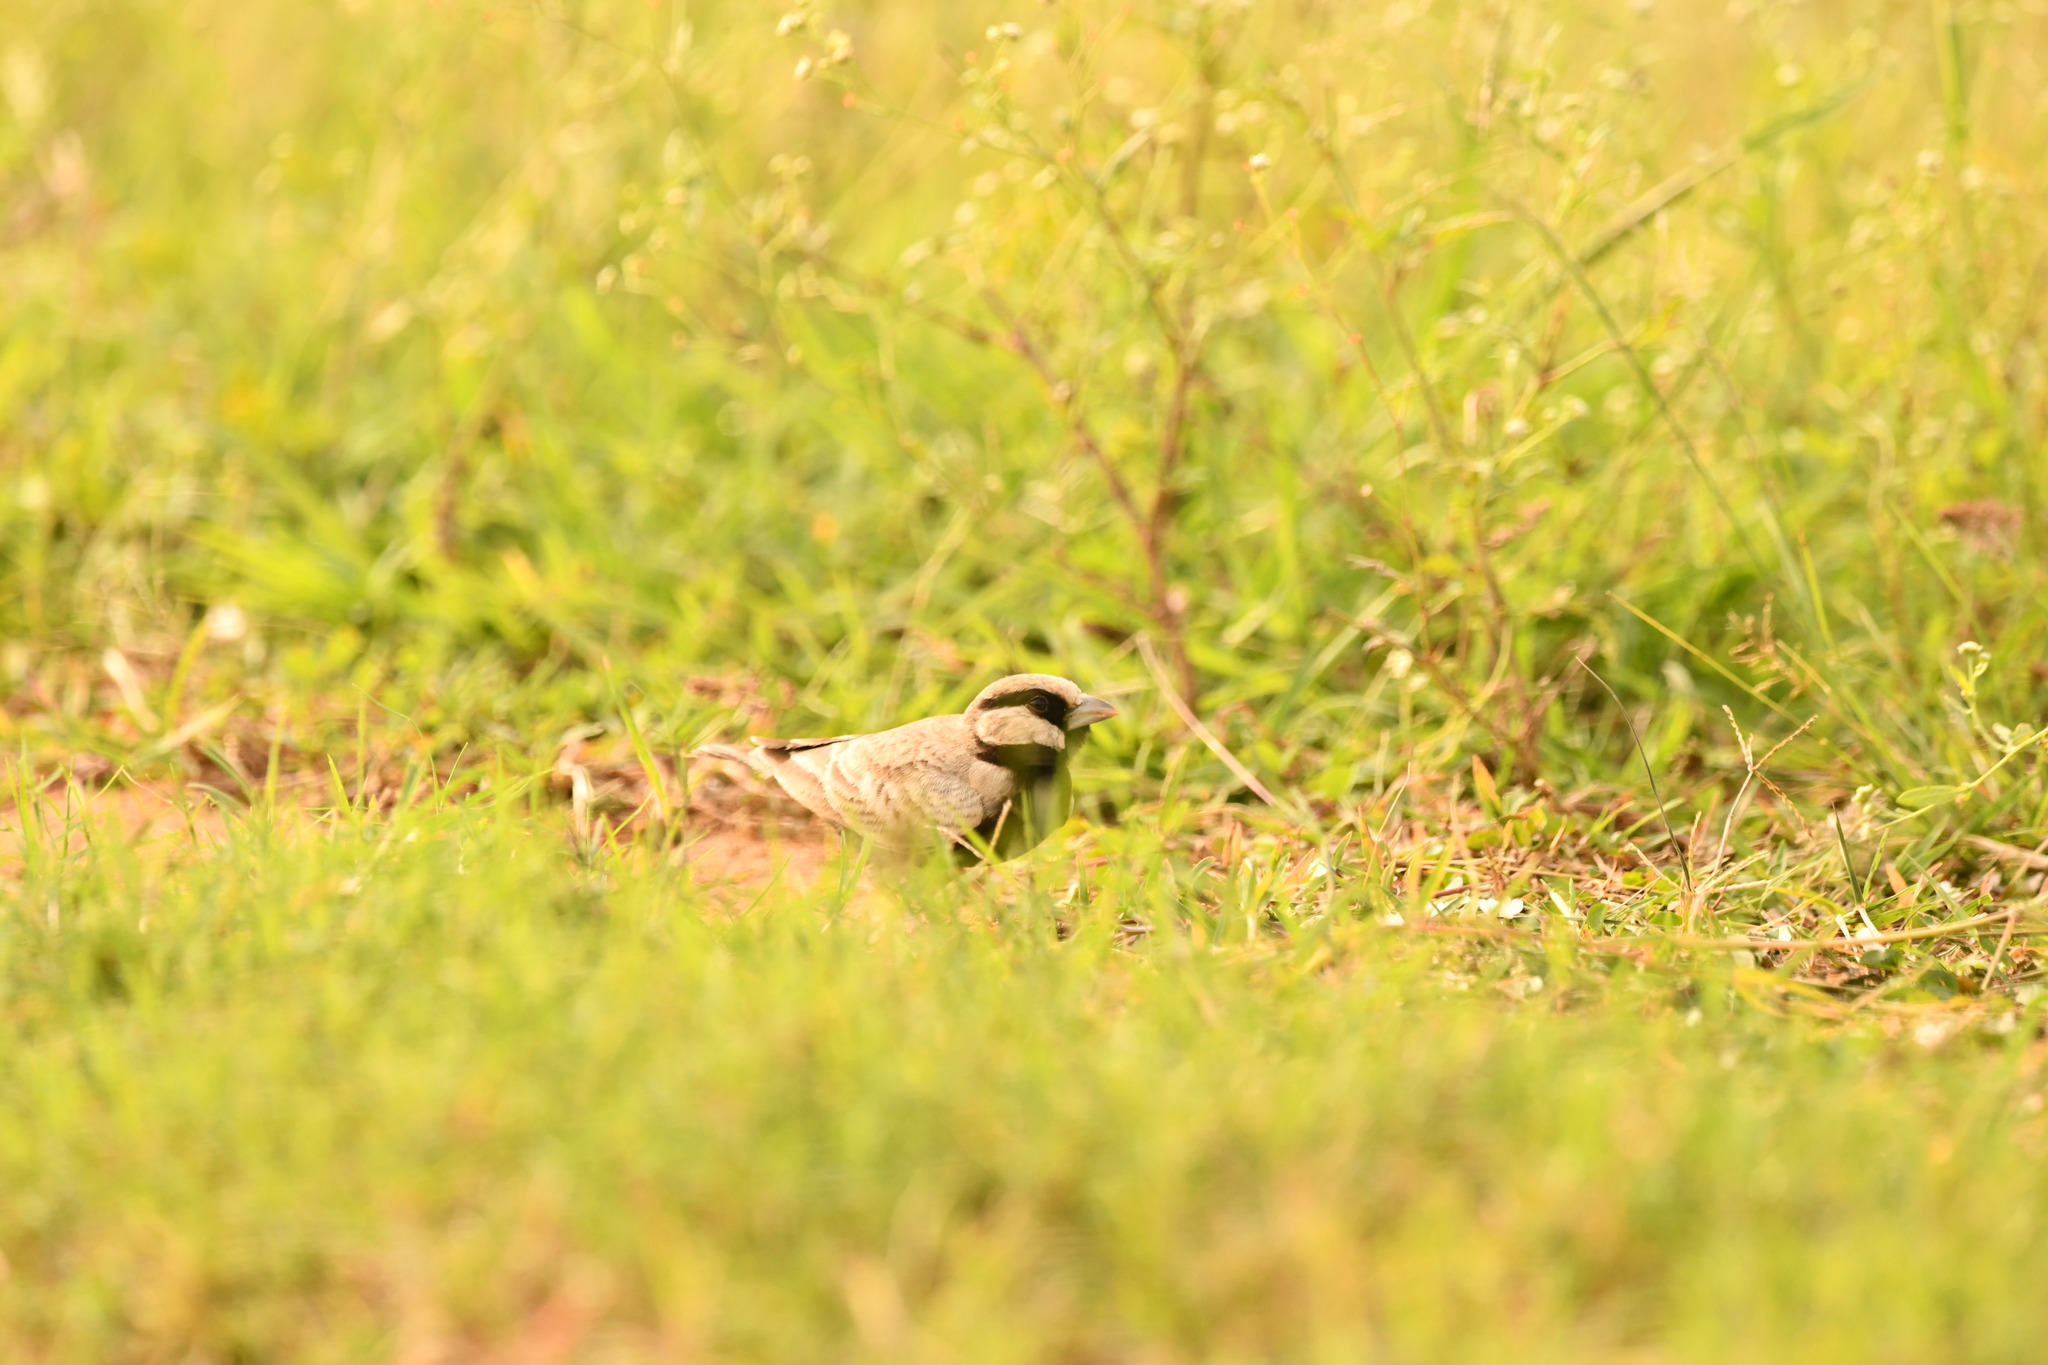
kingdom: Animalia
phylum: Chordata
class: Aves
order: Passeriformes
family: Alaudidae
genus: Eremopterix
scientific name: Eremopterix griseus
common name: Ashy-crowned sparrow-lark
